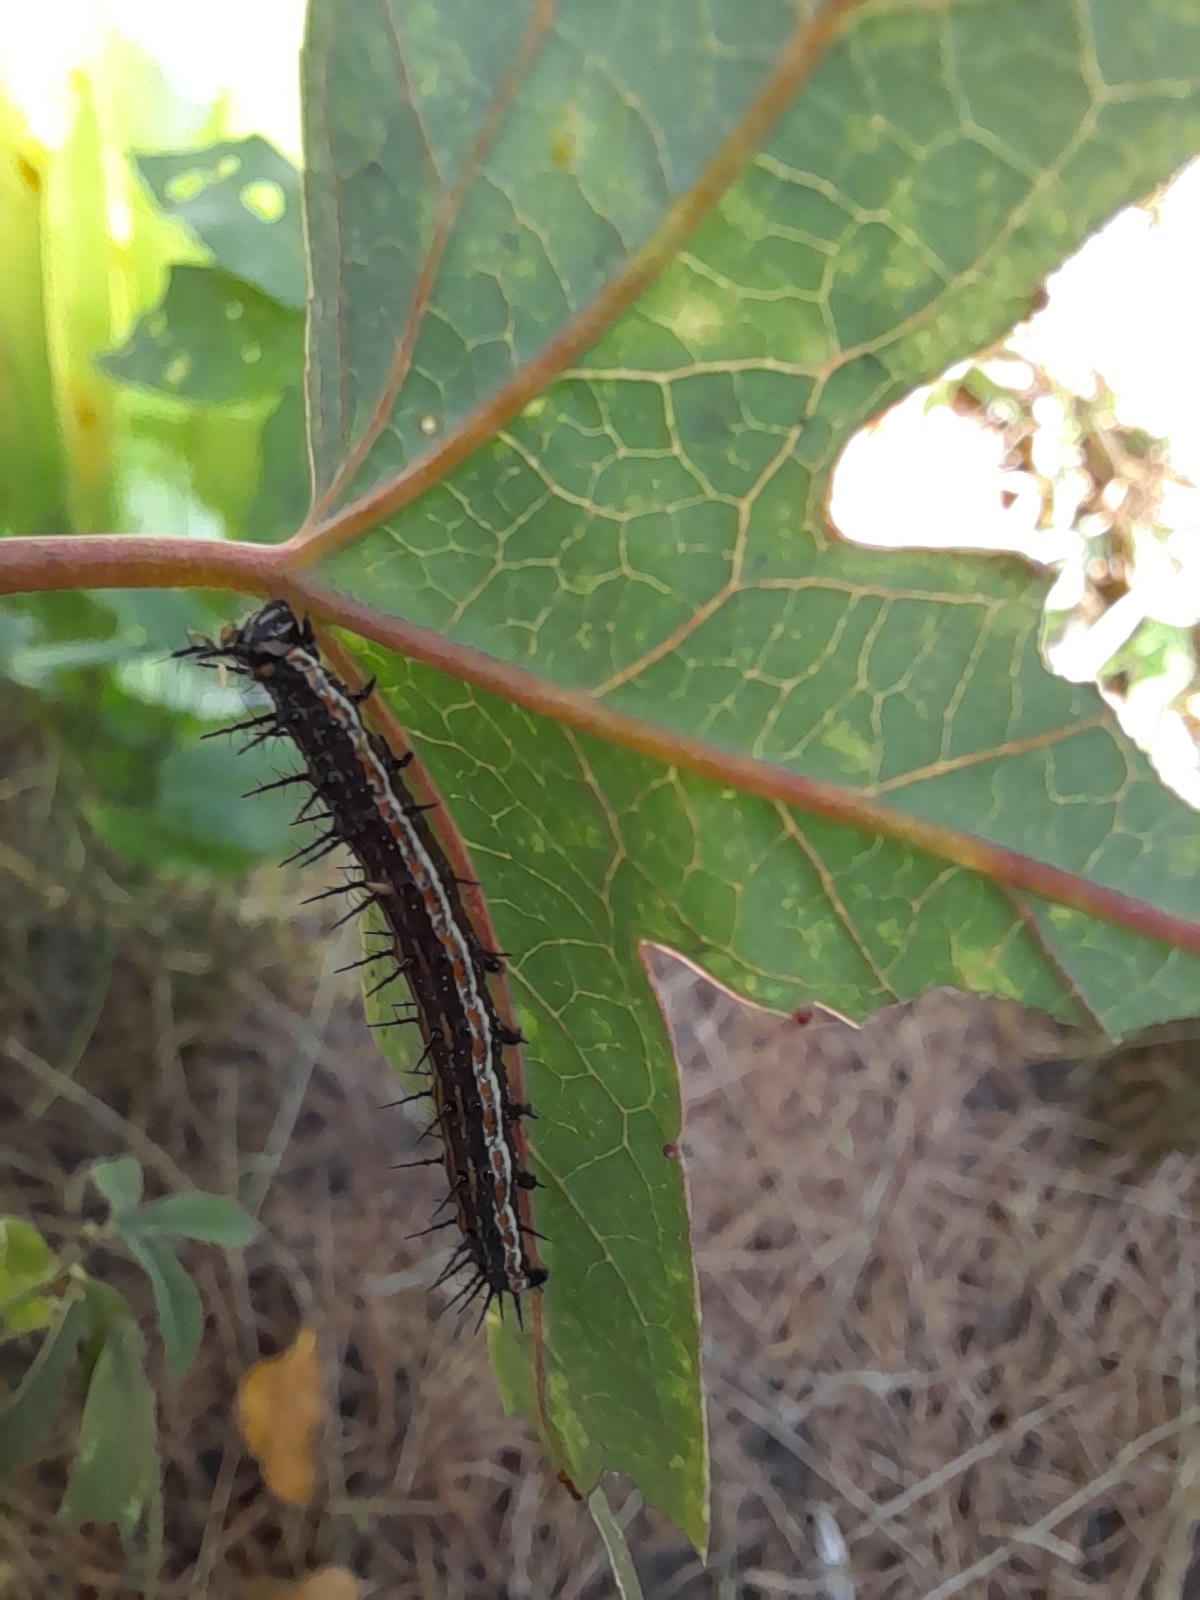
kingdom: Animalia
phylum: Arthropoda
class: Insecta
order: Lepidoptera
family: Nymphalidae
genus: Dione
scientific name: Dione vanillae
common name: Gulf fritillary
